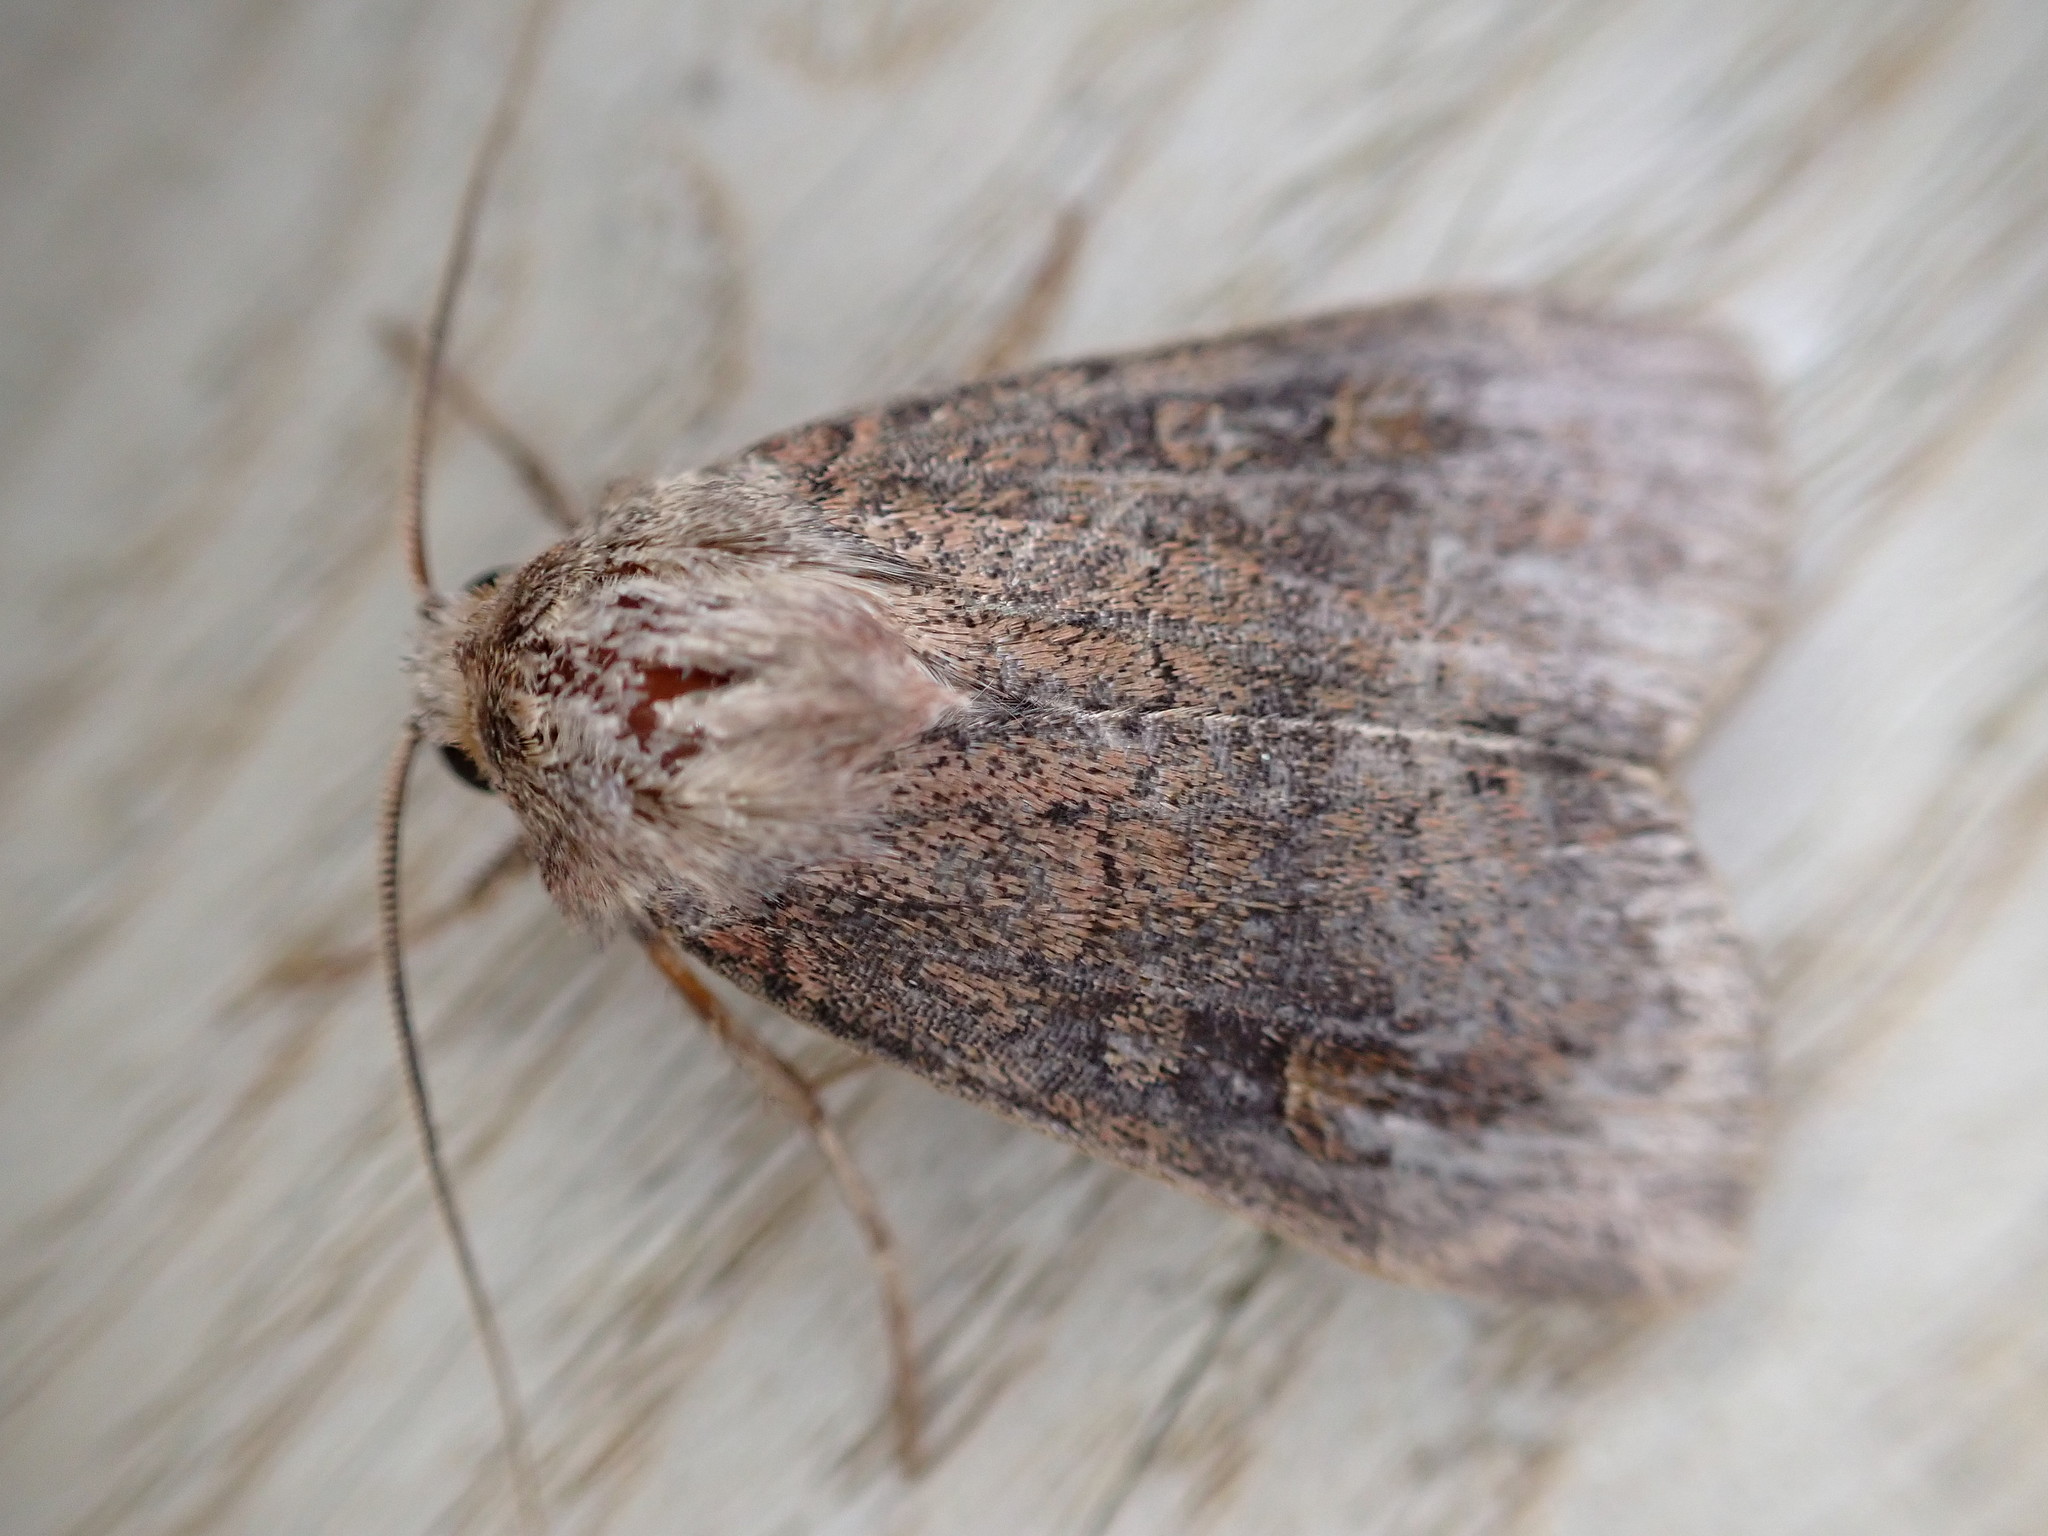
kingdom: Animalia
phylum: Arthropoda
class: Insecta
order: Lepidoptera
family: Noctuidae
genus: Xestia
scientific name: Xestia xanthographa
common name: Square-spot rustic
